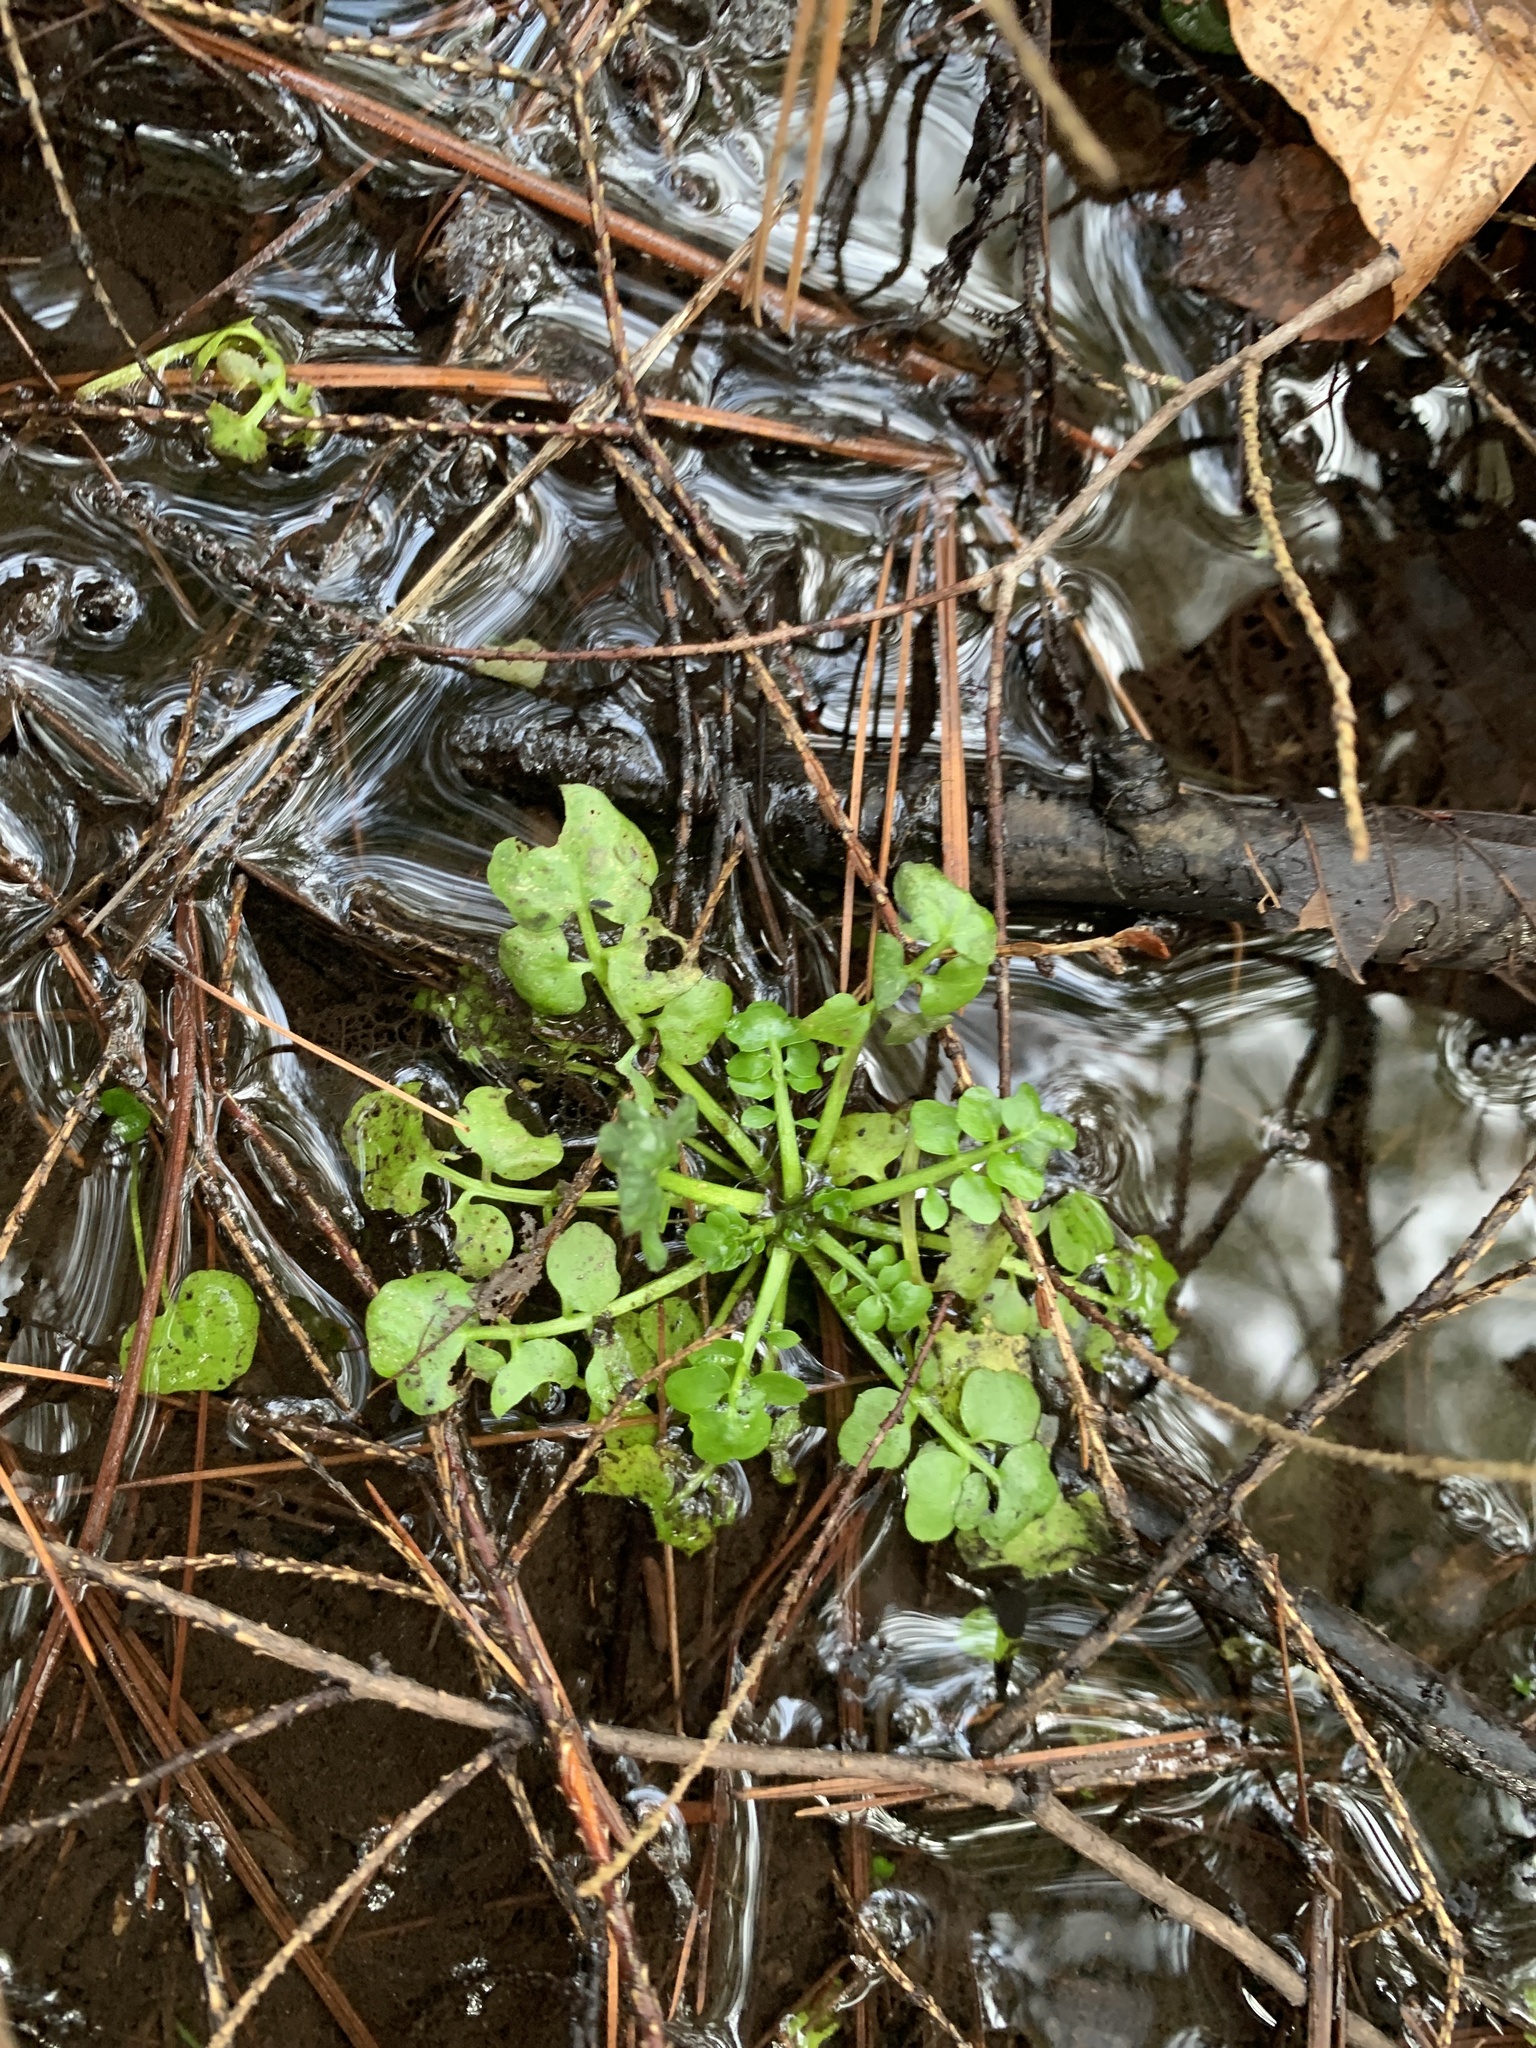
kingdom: Plantae
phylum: Tracheophyta
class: Magnoliopsida
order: Brassicales
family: Brassicaceae
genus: Cardamine
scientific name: Cardamine pensylvanica
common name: Pennsylvania bittercress
